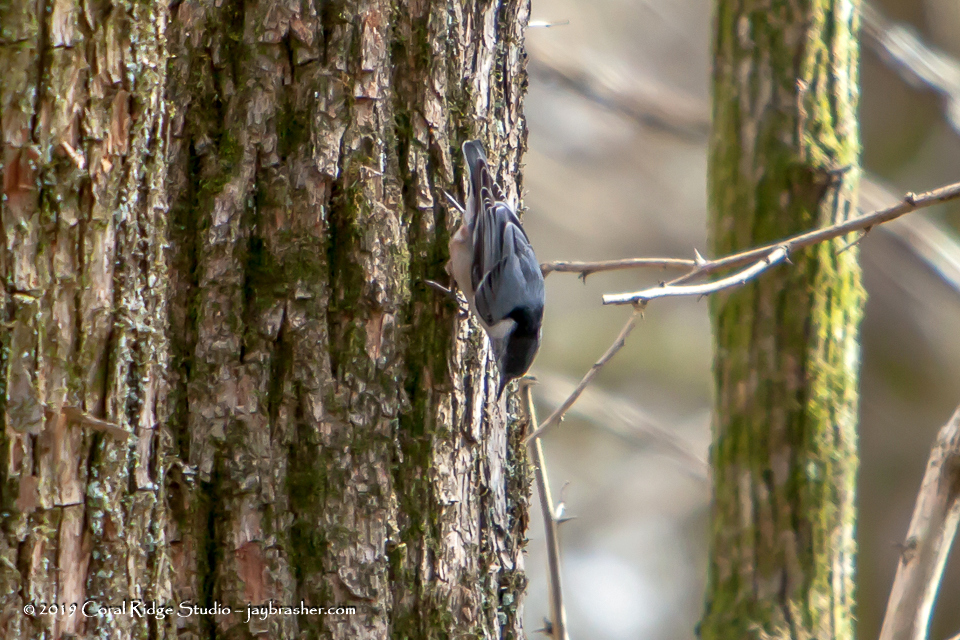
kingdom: Animalia
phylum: Chordata
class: Aves
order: Passeriformes
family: Sittidae
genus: Sitta
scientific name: Sitta carolinensis
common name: White-breasted nuthatch
